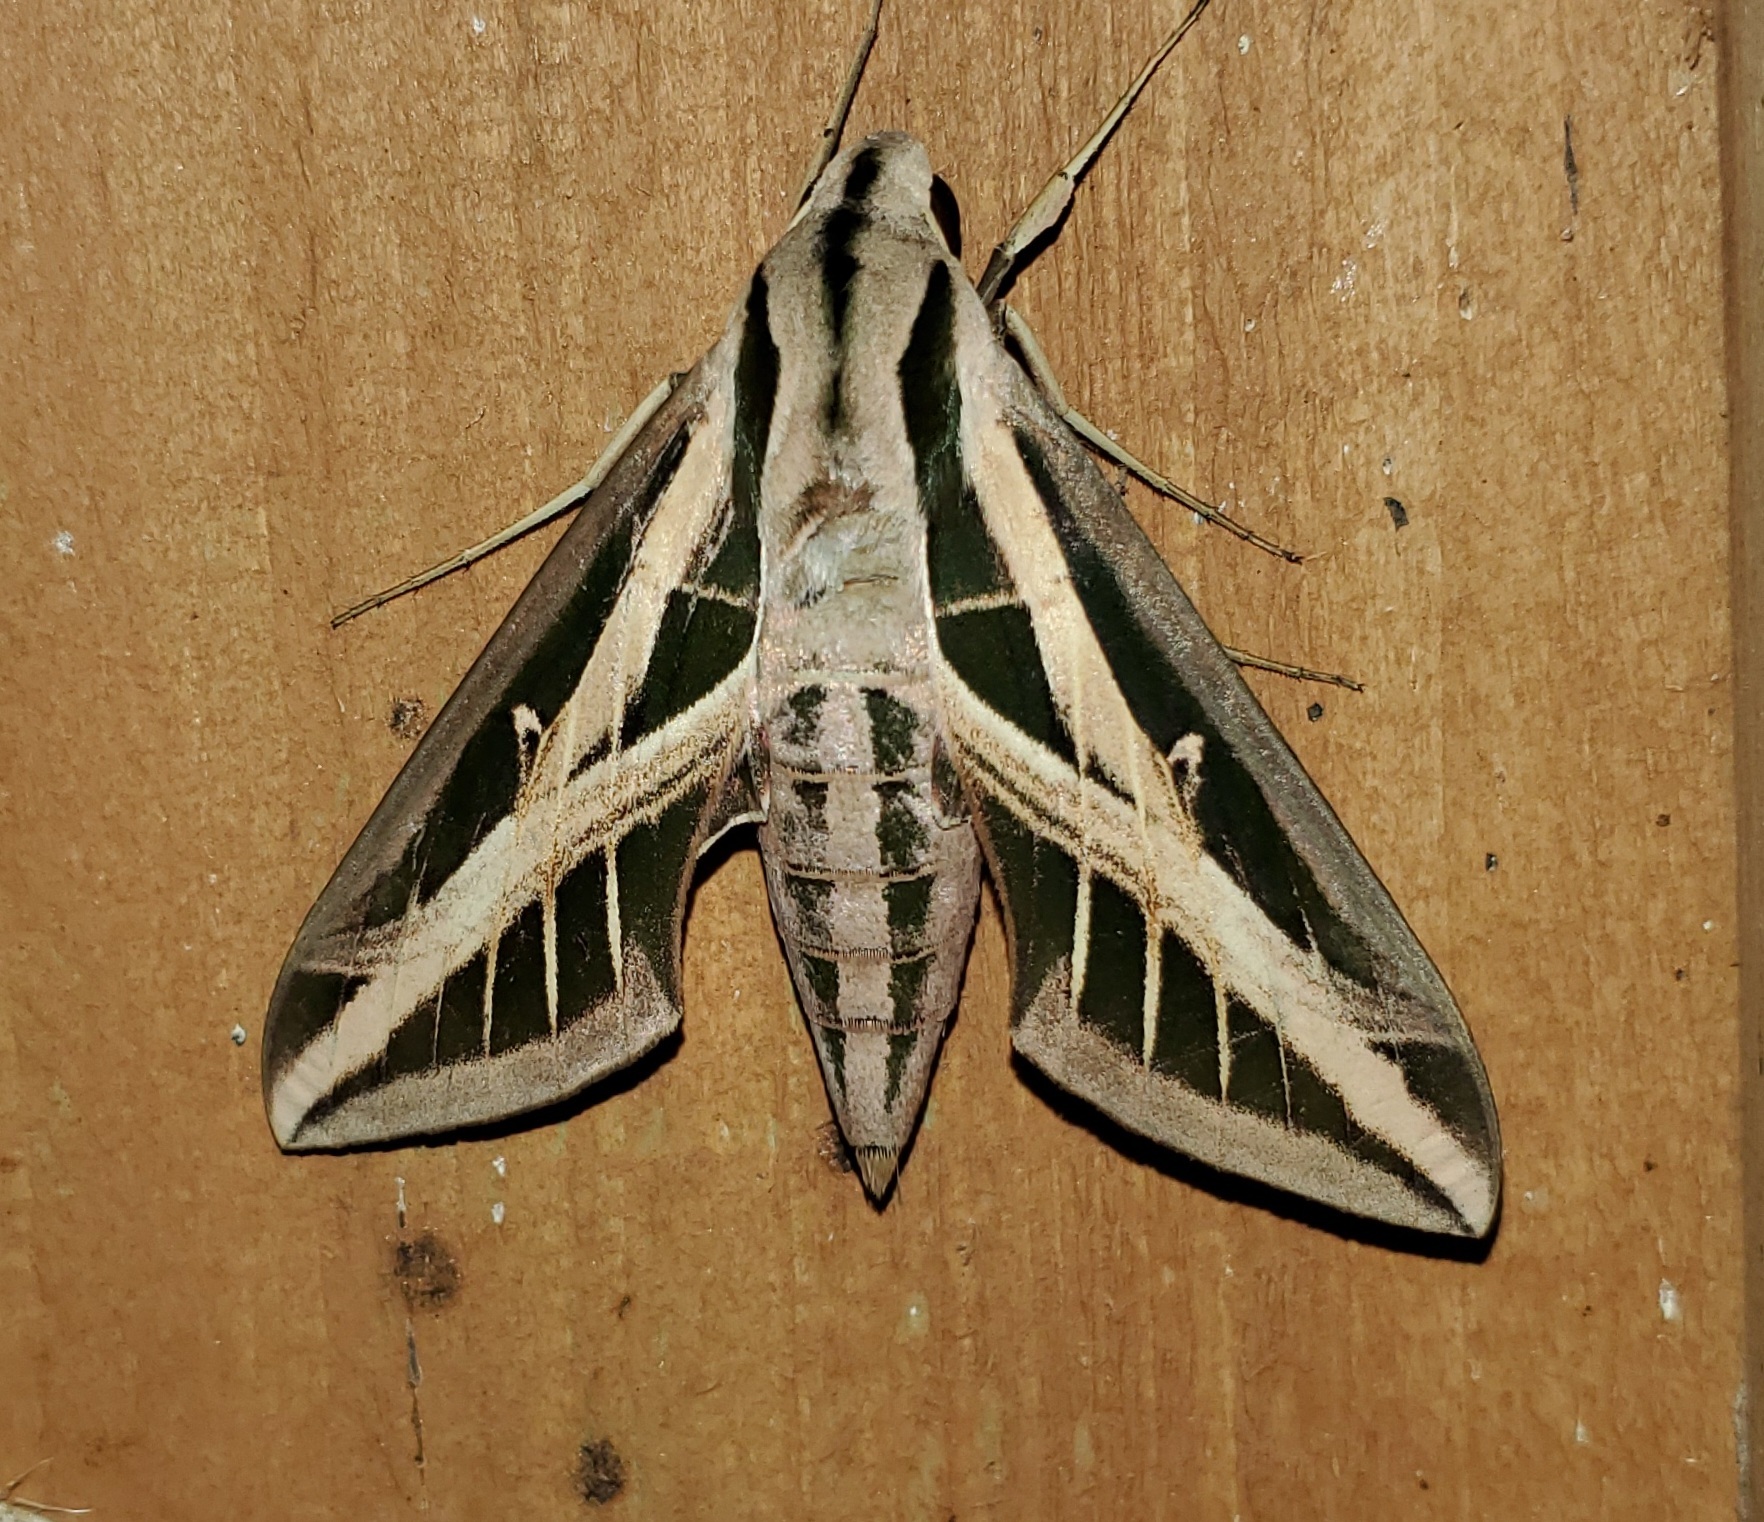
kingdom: Animalia
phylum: Arthropoda
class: Insecta
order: Lepidoptera
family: Sphingidae
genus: Eumorpha
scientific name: Eumorpha fasciatus
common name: Banded sphinx
